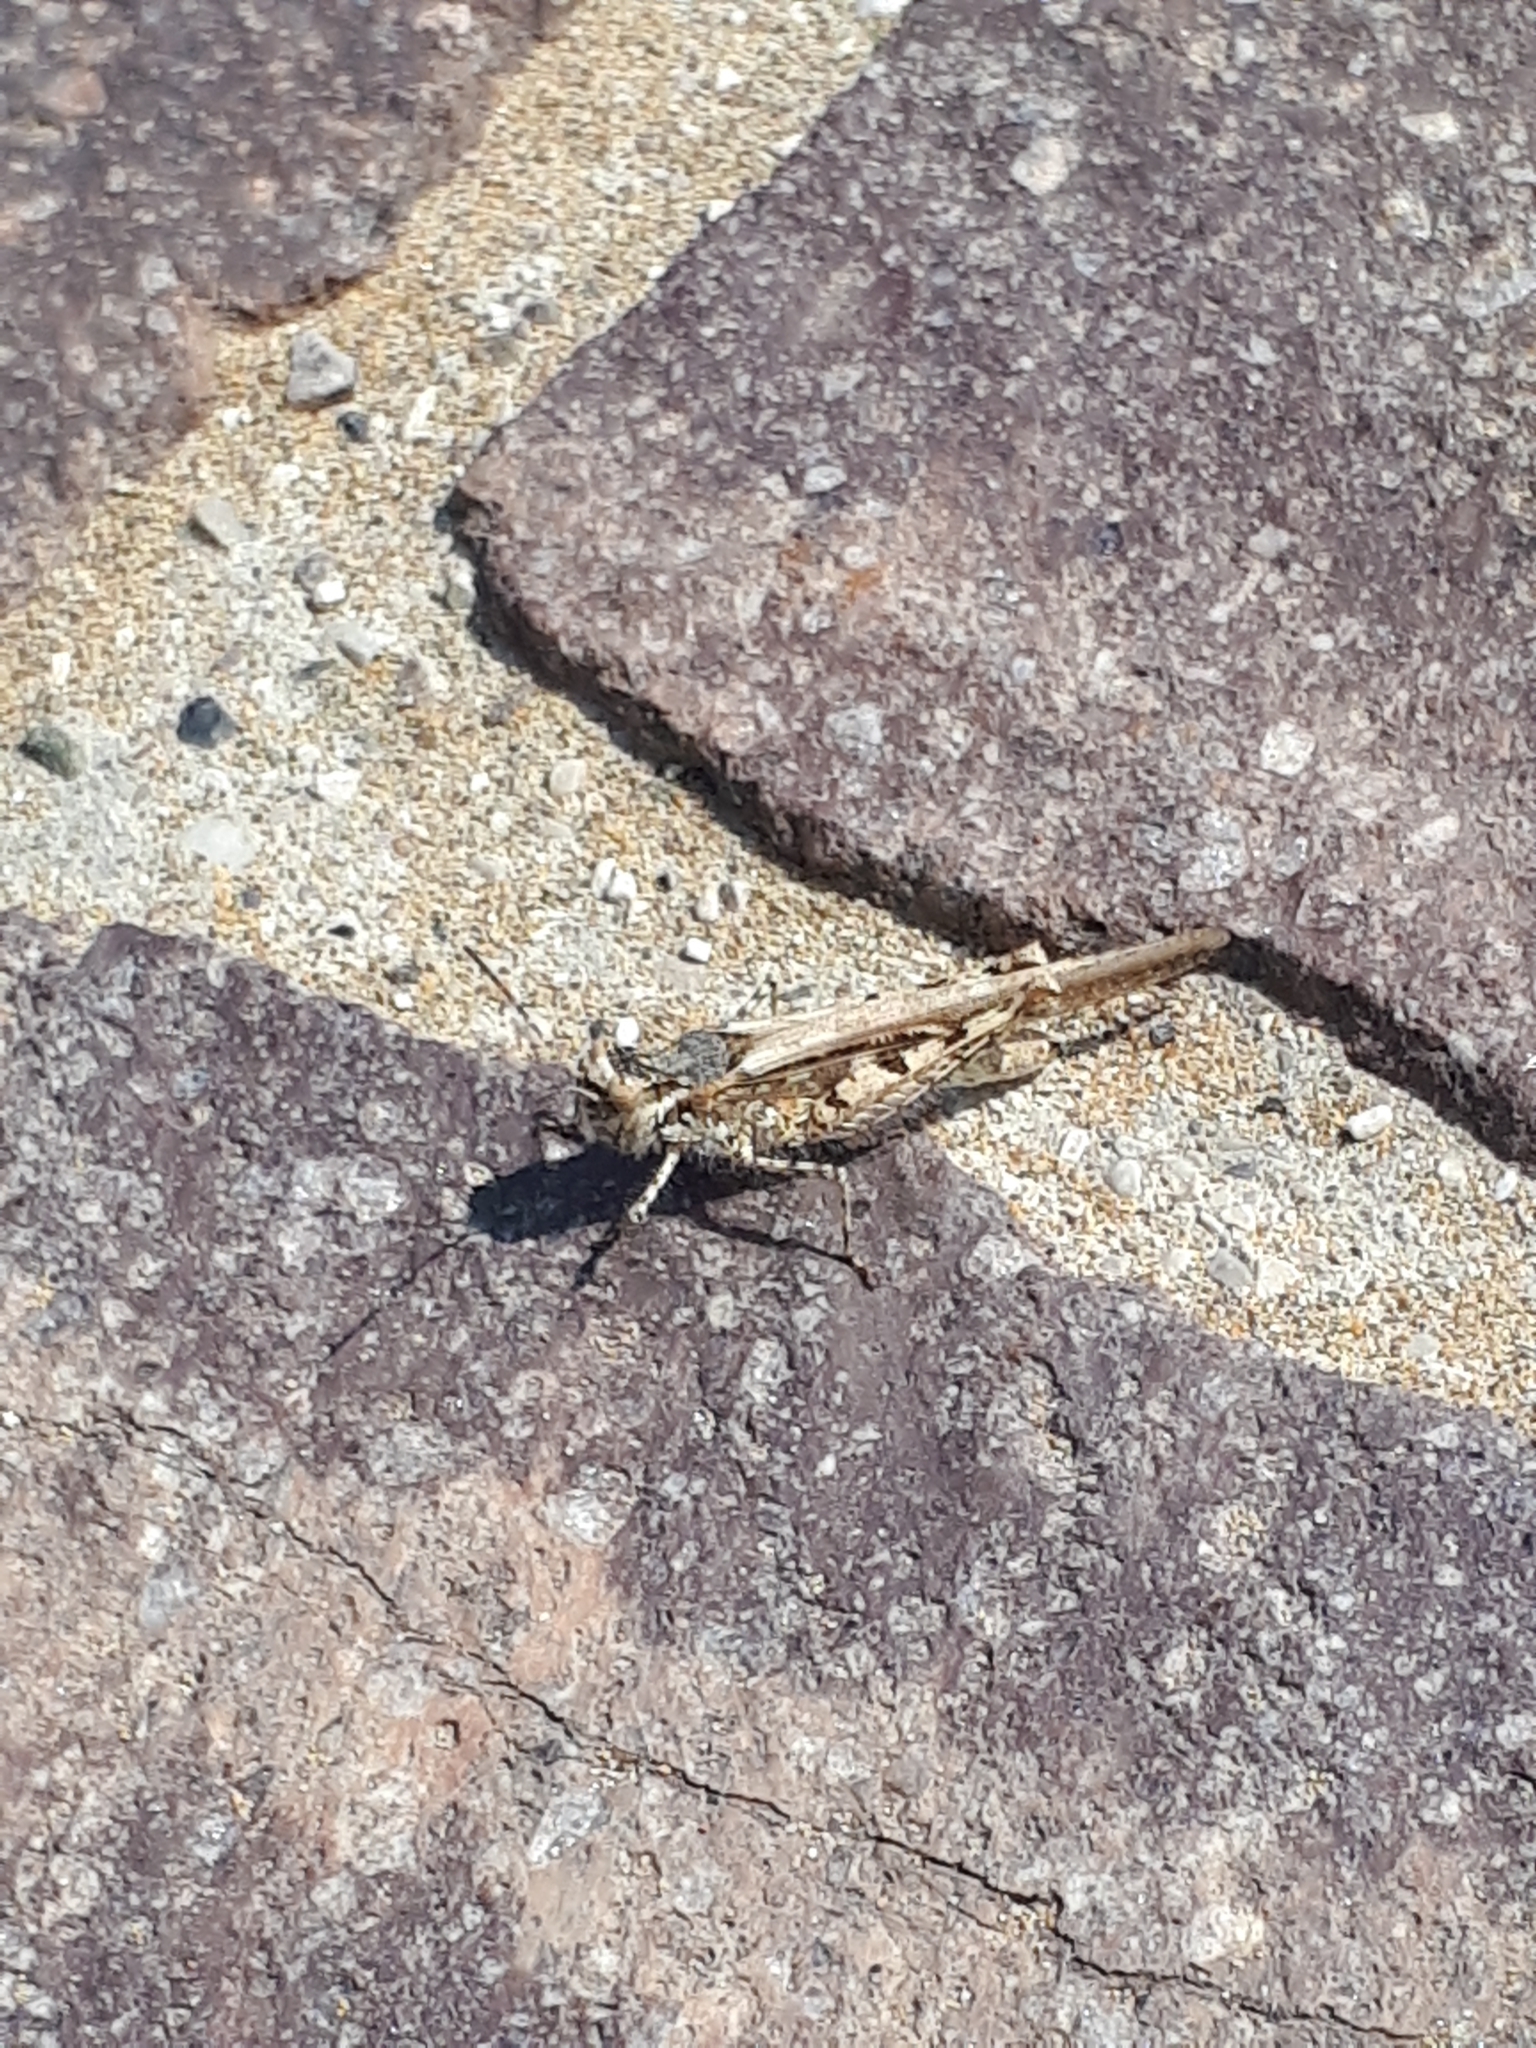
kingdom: Animalia
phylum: Arthropoda
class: Insecta
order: Orthoptera
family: Acrididae
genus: Acrotylus
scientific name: Acrotylus patruelis
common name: Slender burrowing grasshopper
